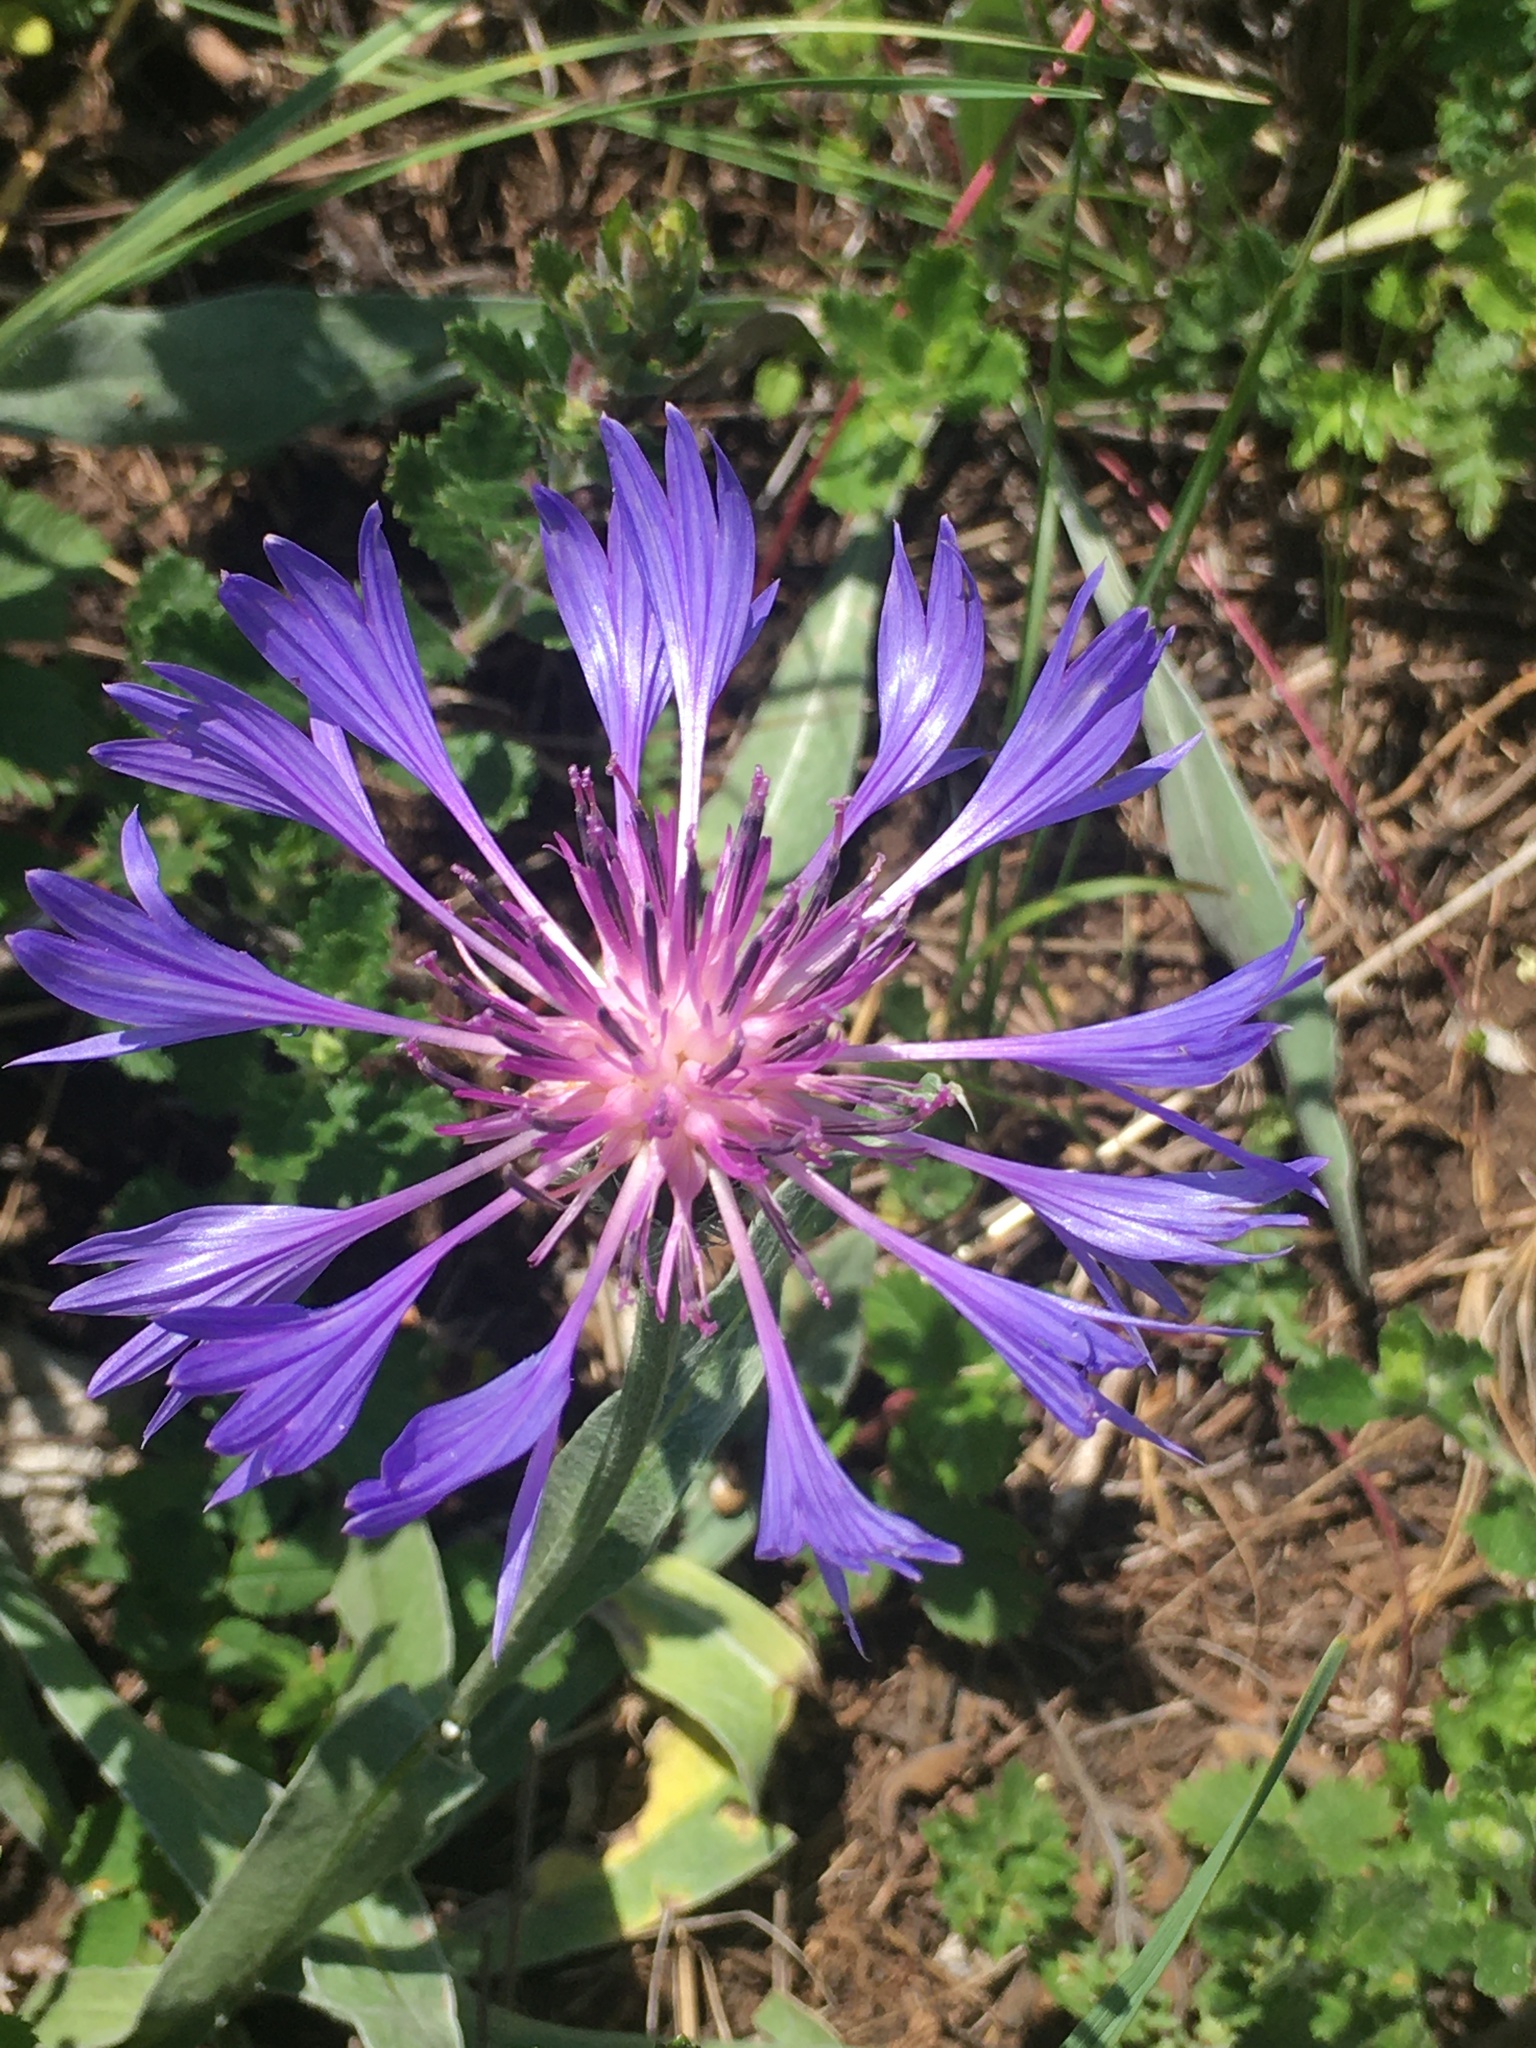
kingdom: Plantae
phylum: Tracheophyta
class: Magnoliopsida
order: Asterales
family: Asteraceae
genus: Centaurea
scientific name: Centaurea fuscomarginata
